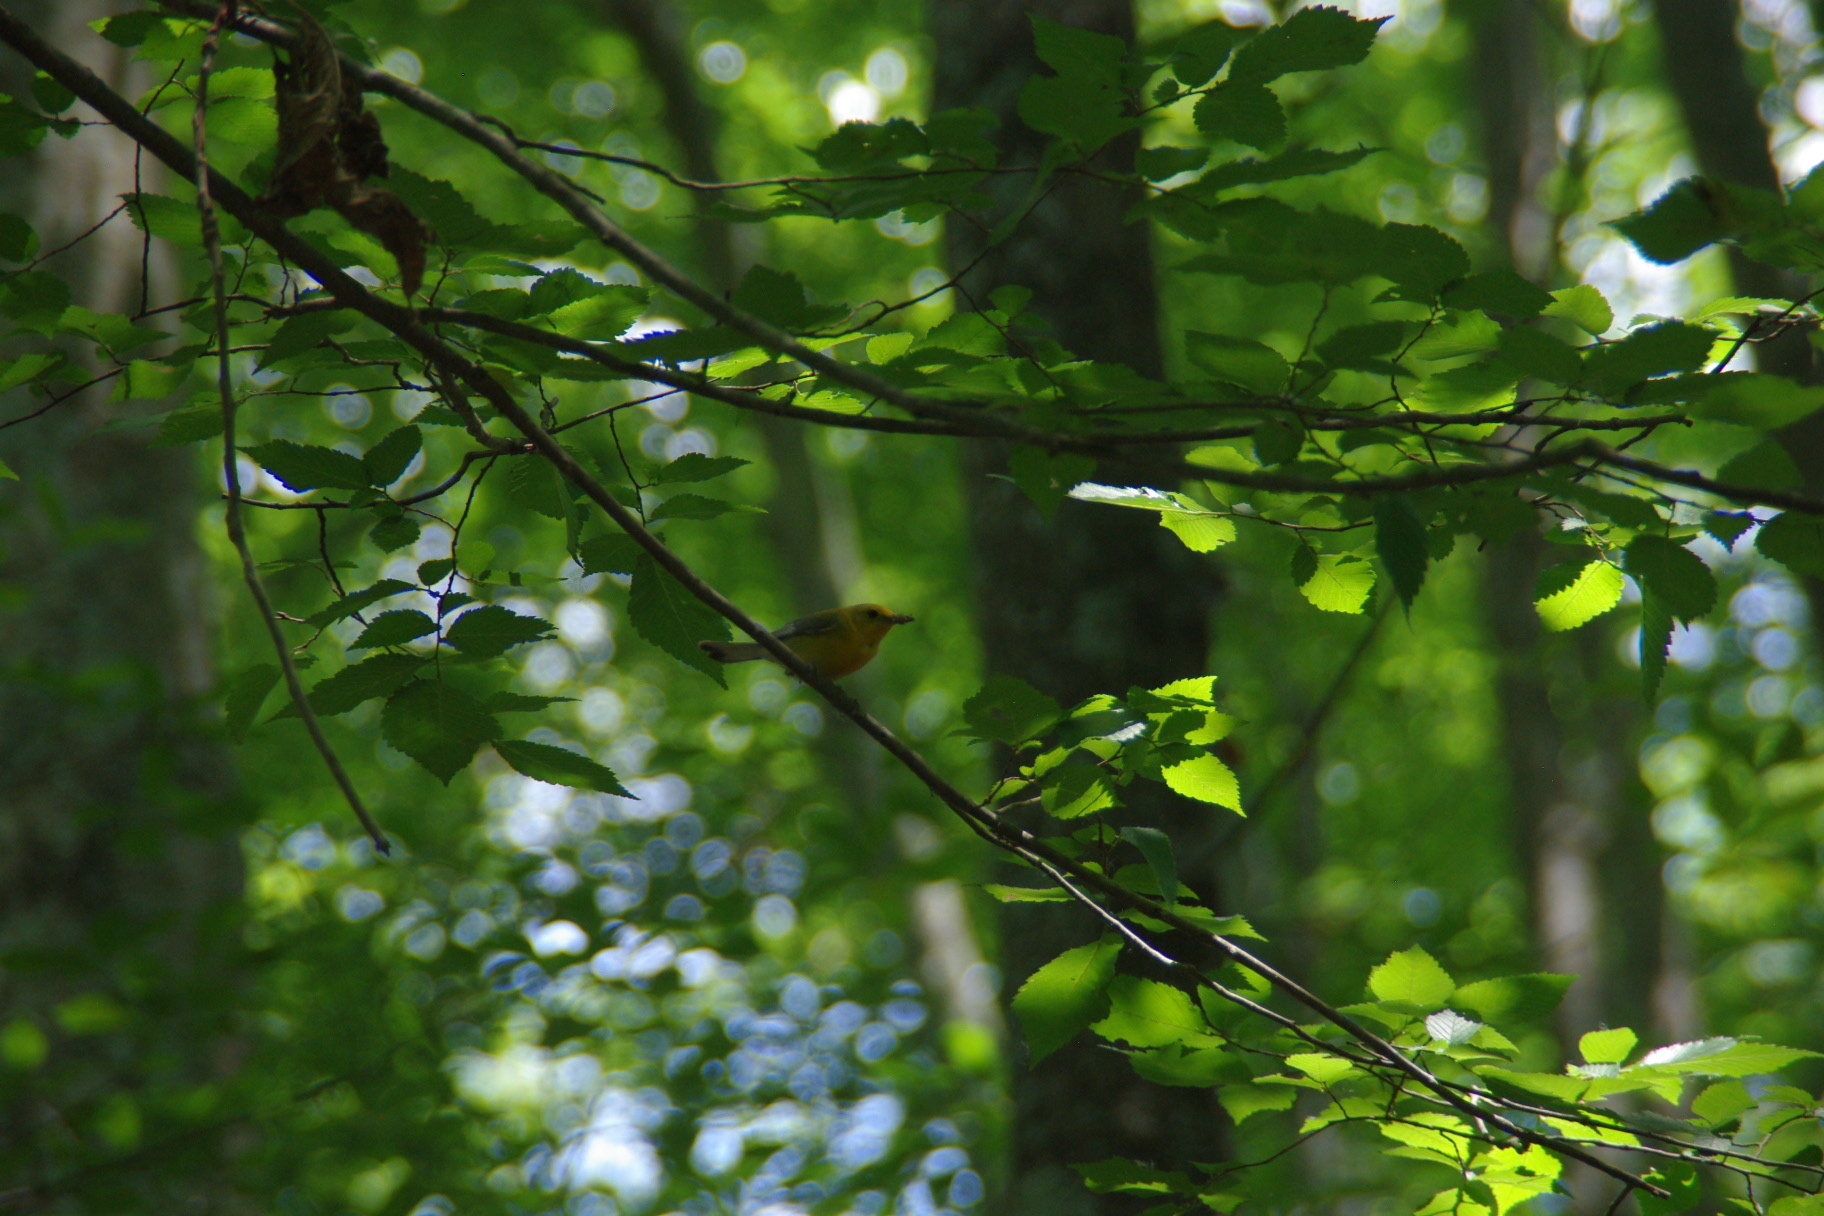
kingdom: Animalia
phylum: Chordata
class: Aves
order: Passeriformes
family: Parulidae
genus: Protonotaria
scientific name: Protonotaria citrea
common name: Prothonotary warbler
